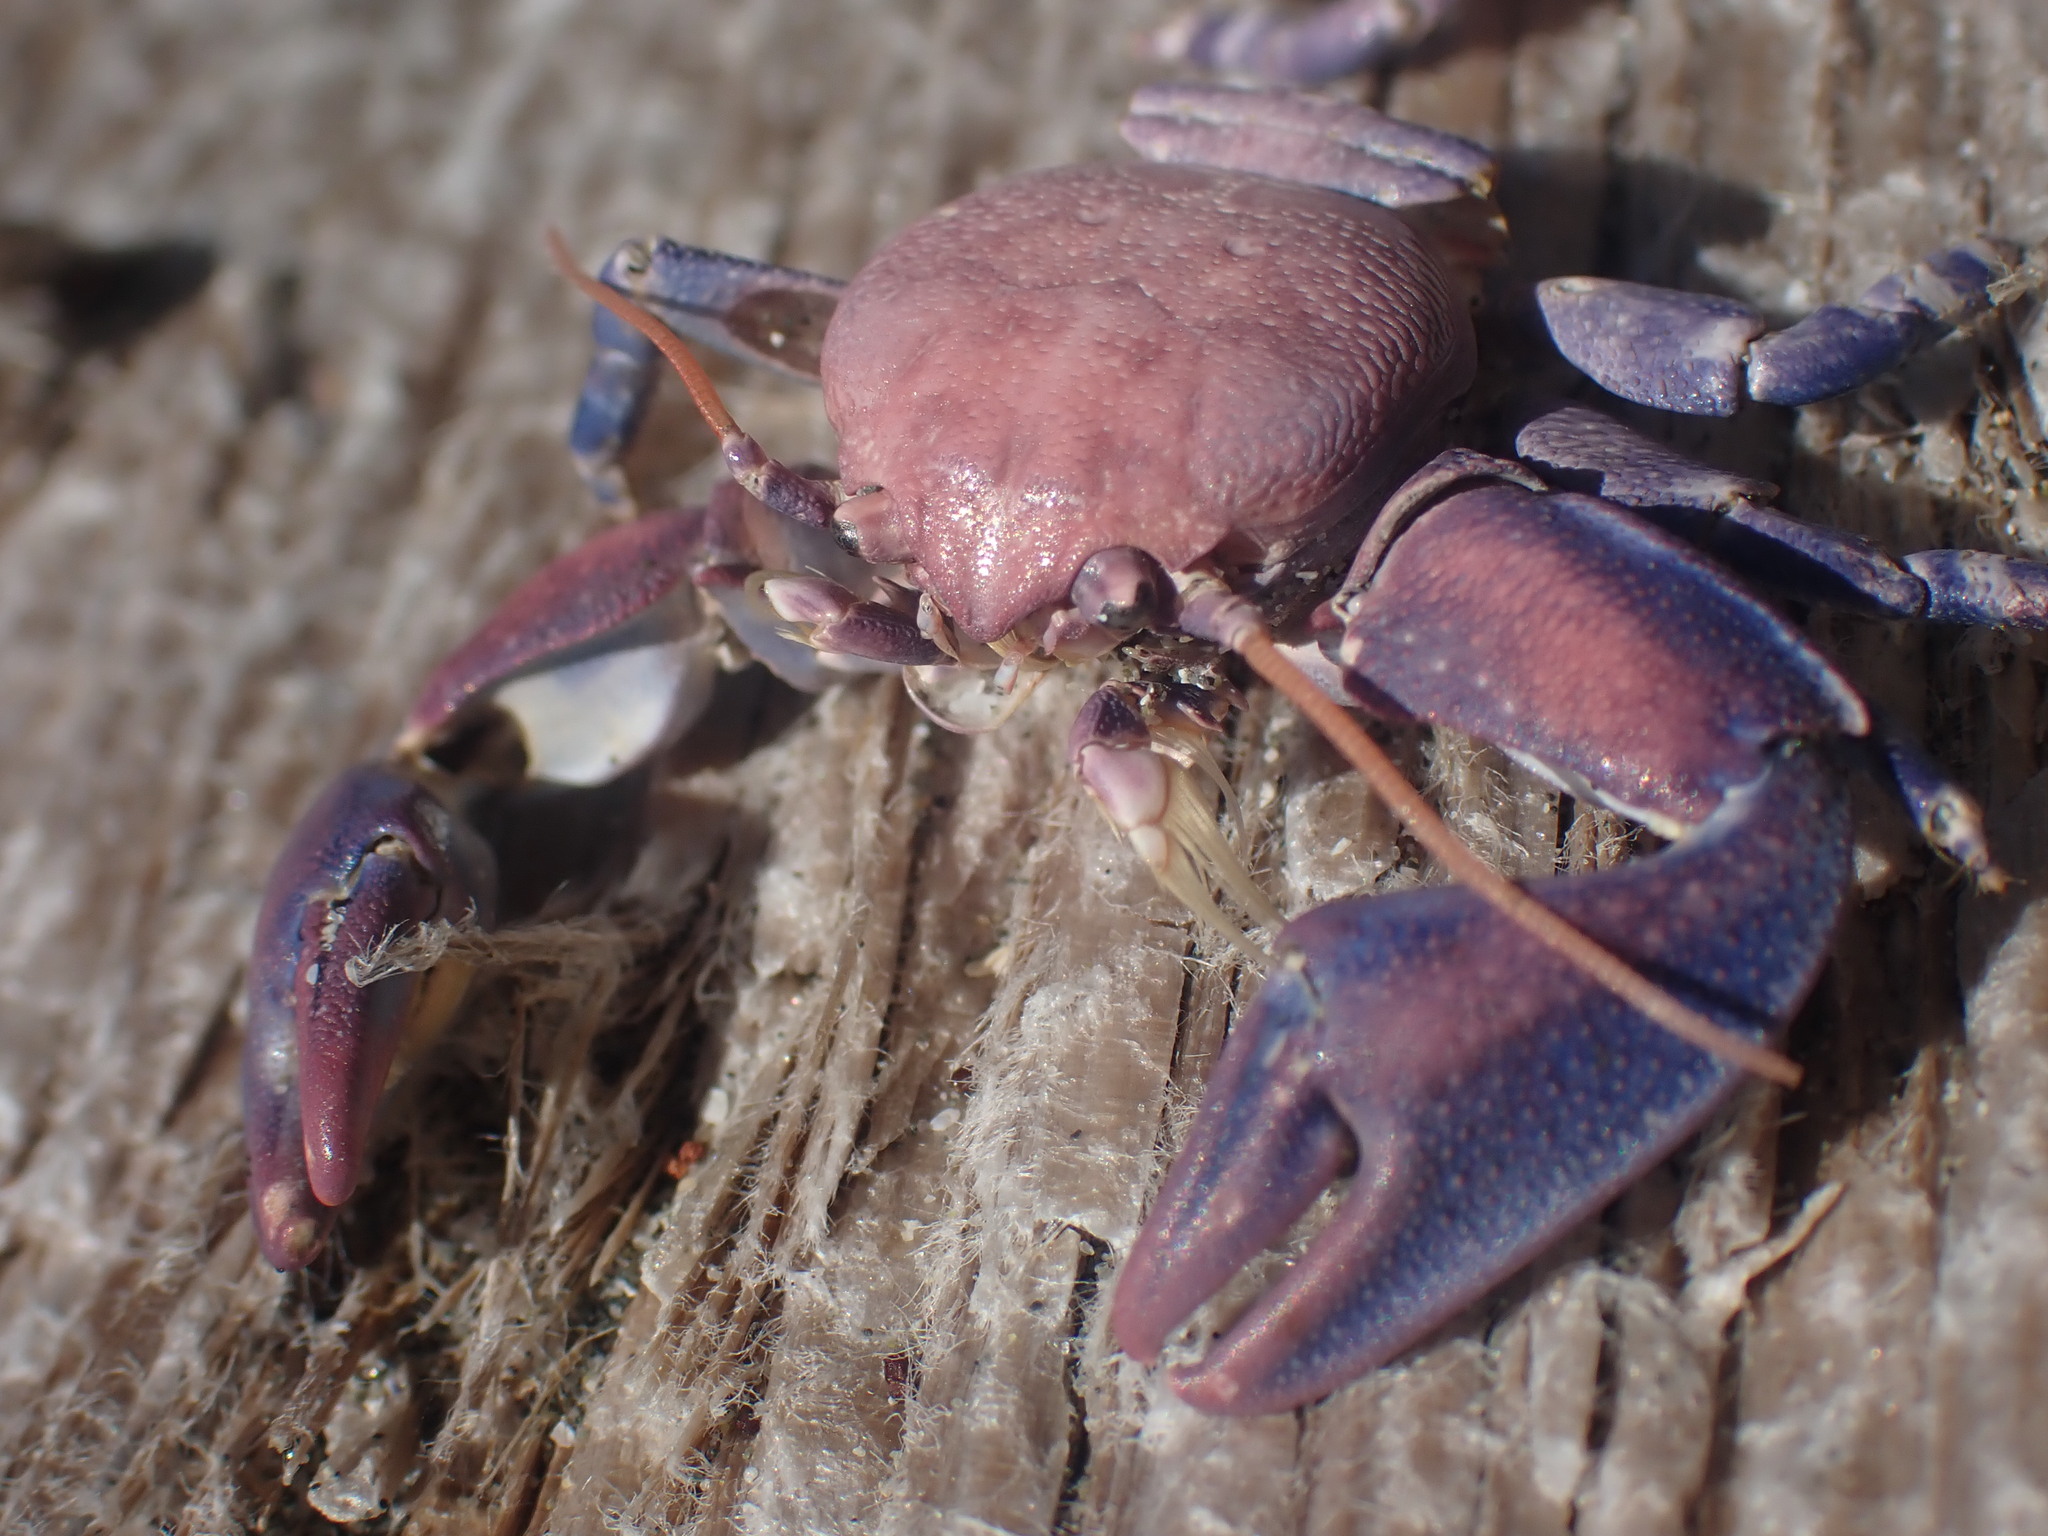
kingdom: Animalia
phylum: Arthropoda
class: Malacostraca
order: Decapoda
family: Porcellanidae
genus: Petrolisthes
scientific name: Petrolisthes cinctipes
